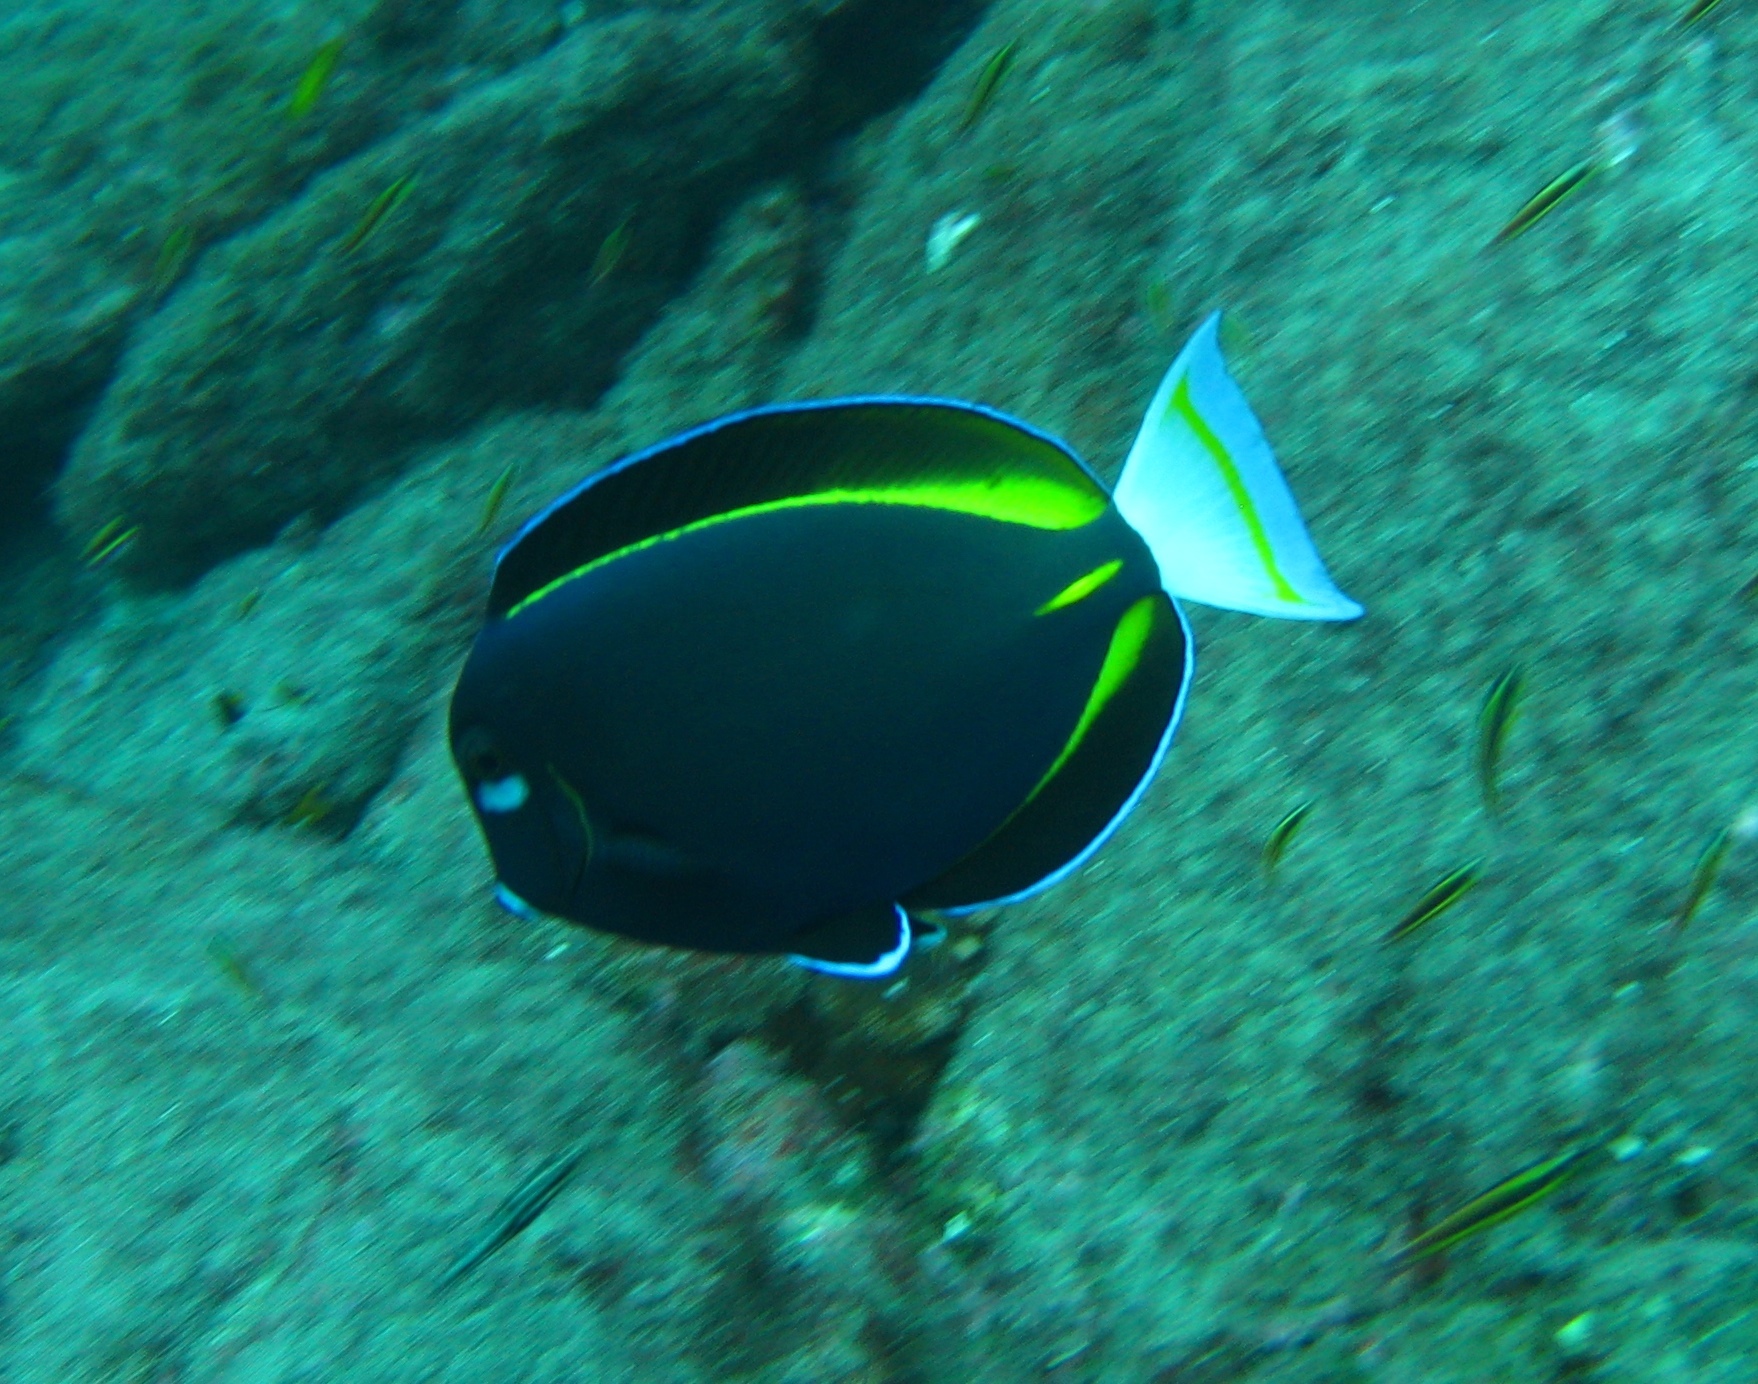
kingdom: Animalia
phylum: Chordata
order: Perciformes
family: Acanthuridae
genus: Acanthurus
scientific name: Acanthurus nigricans
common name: Whitecheek surgeonfish
